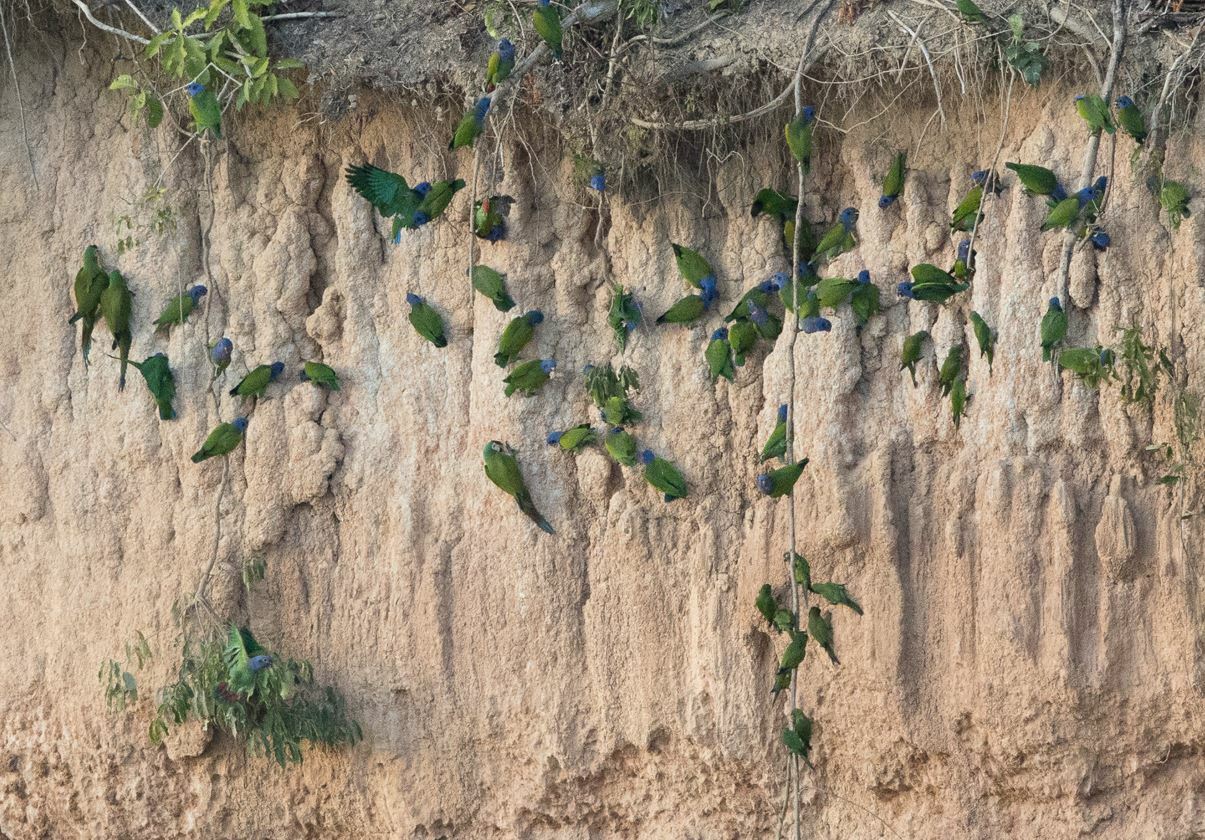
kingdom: Animalia
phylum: Chordata
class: Aves
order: Psittaciformes
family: Psittacidae
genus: Aratinga
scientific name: Aratinga weddellii
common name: Dusky-headed parakeet
